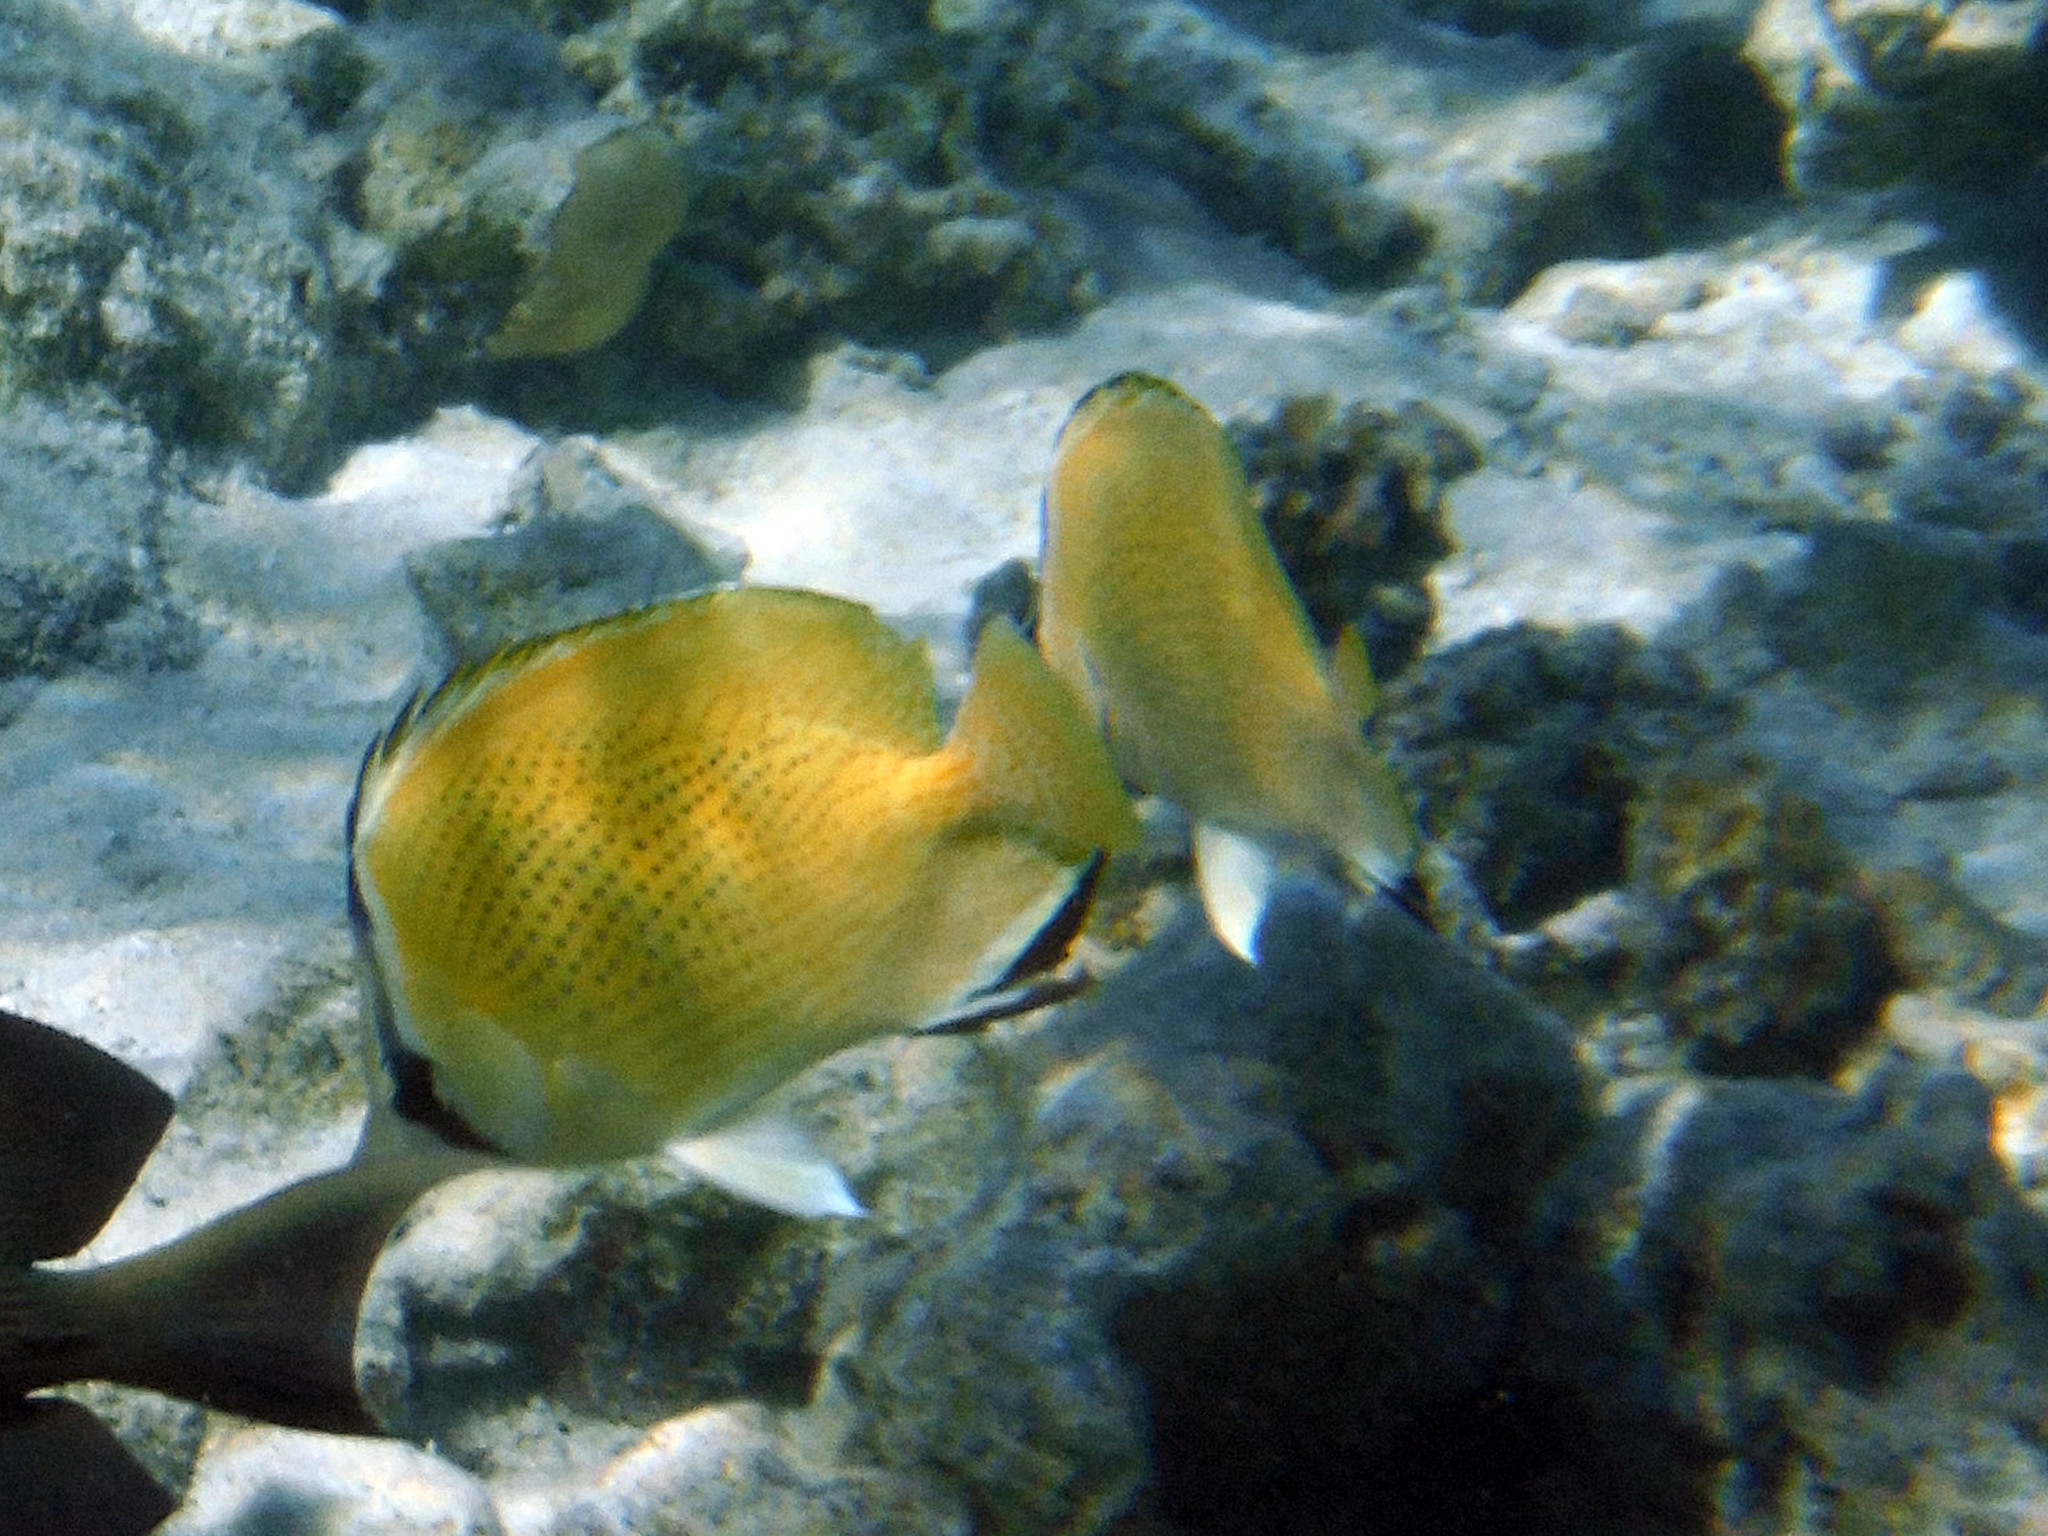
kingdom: Animalia
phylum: Chordata
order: Perciformes
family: Chaetodontidae
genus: Chaetodon
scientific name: Chaetodon citrinellus
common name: Speckled butterflyfish
